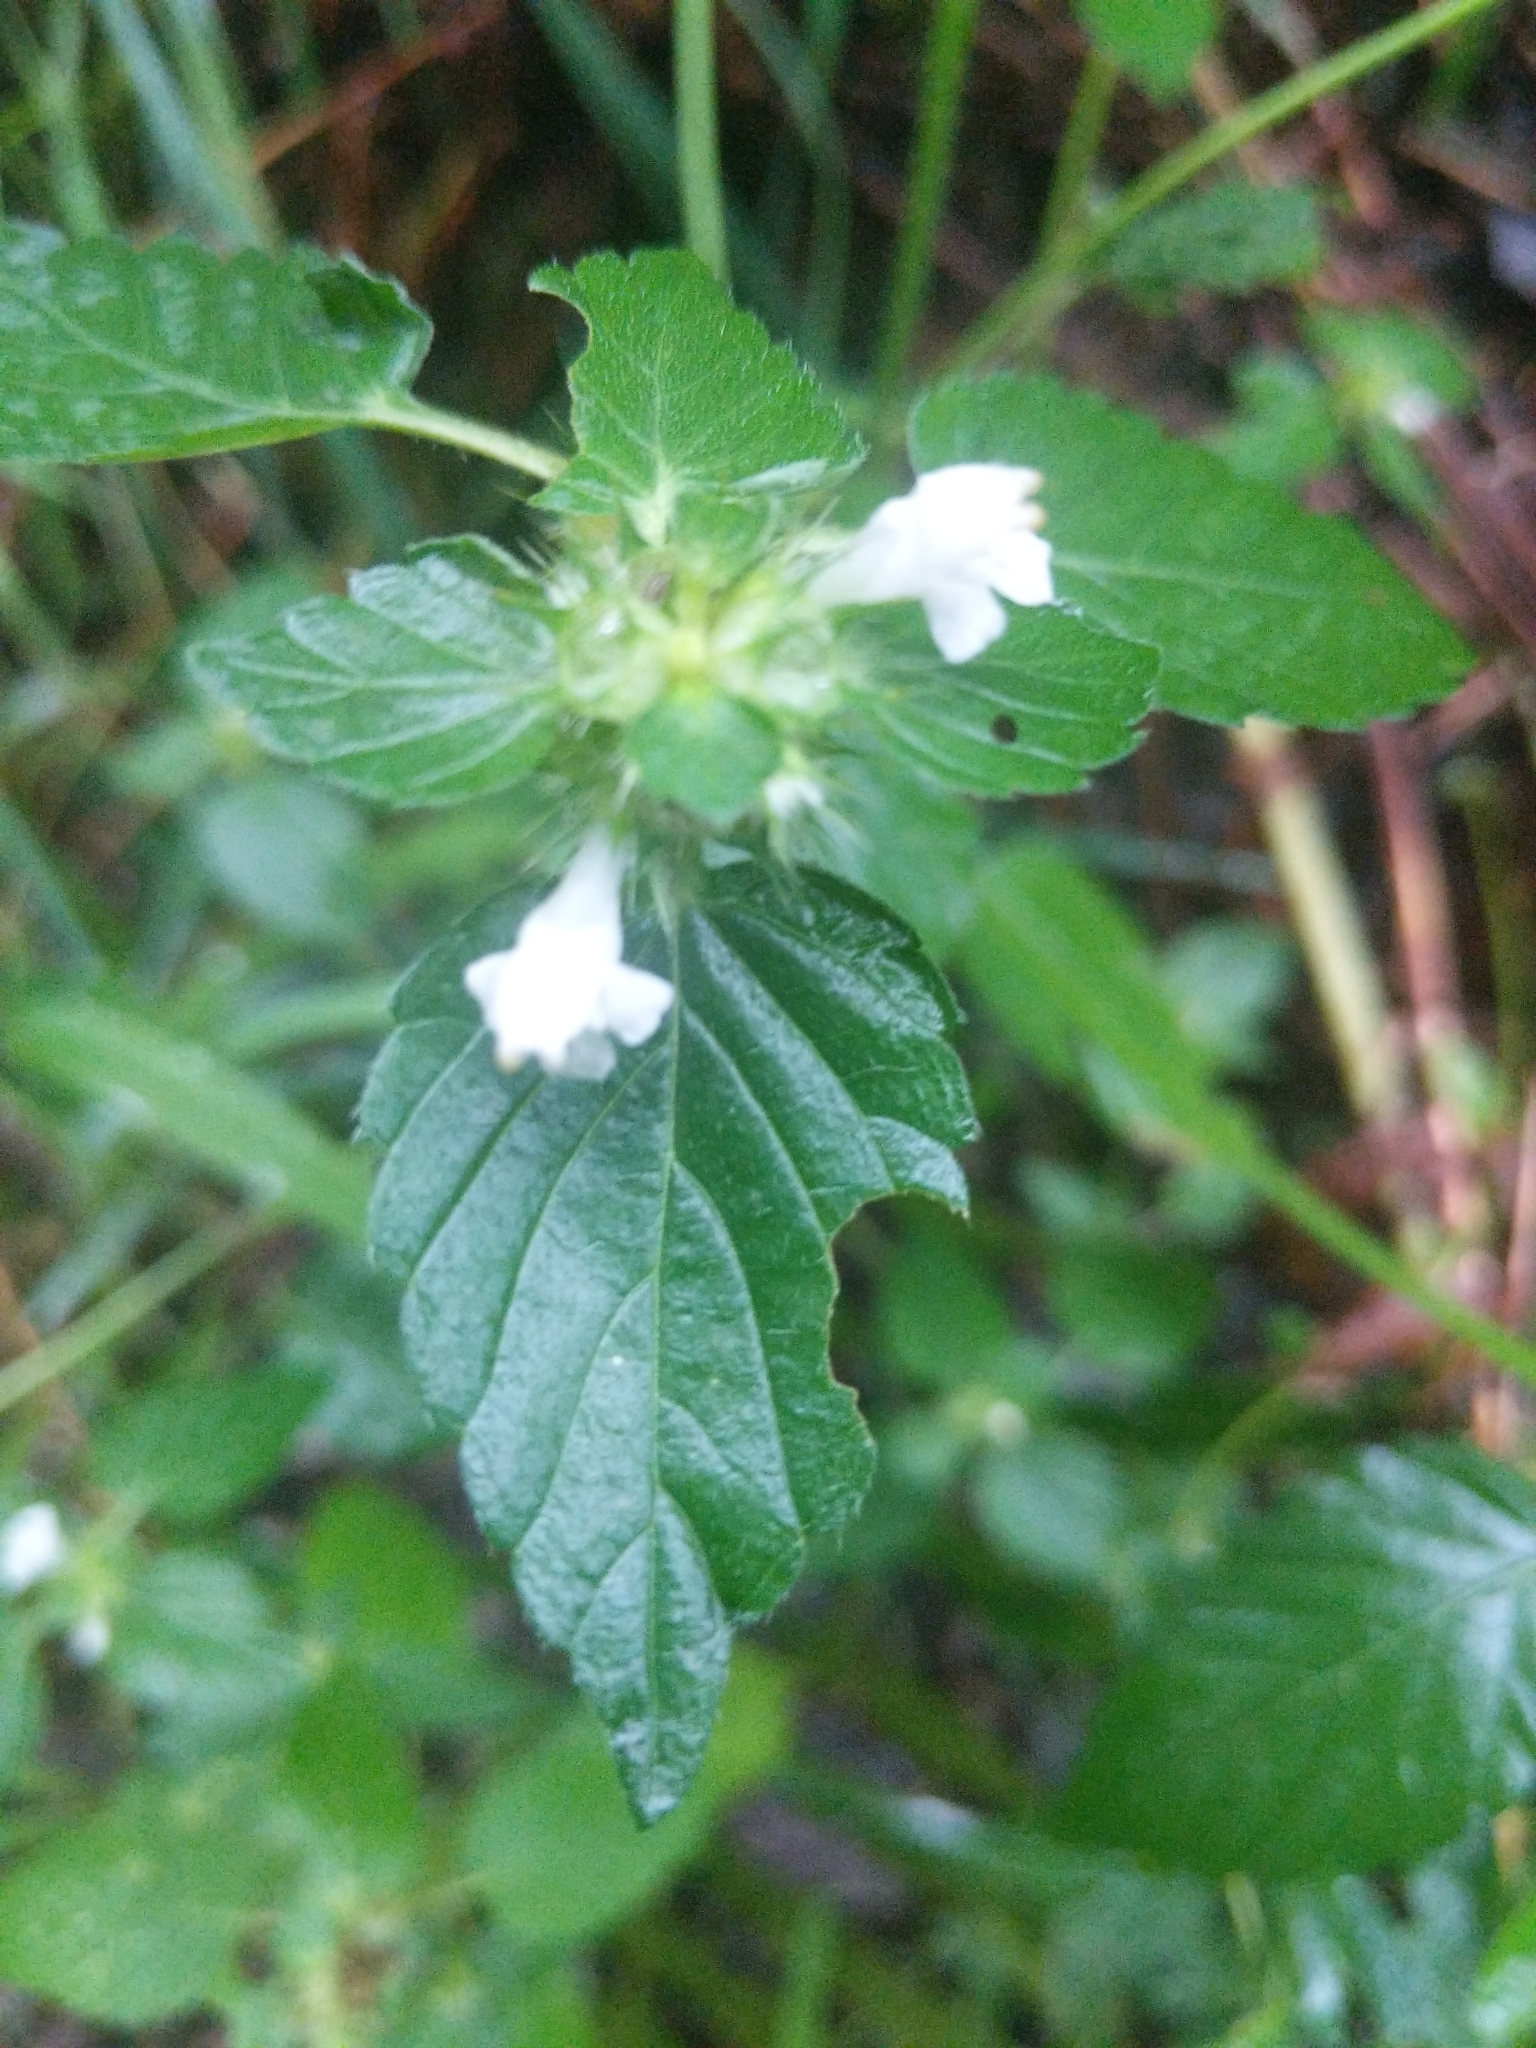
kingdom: Plantae
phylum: Tracheophyta
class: Magnoliopsida
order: Lamiales
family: Lamiaceae
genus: Galeopsis
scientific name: Galeopsis tetrahit
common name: Common hemp-nettle
